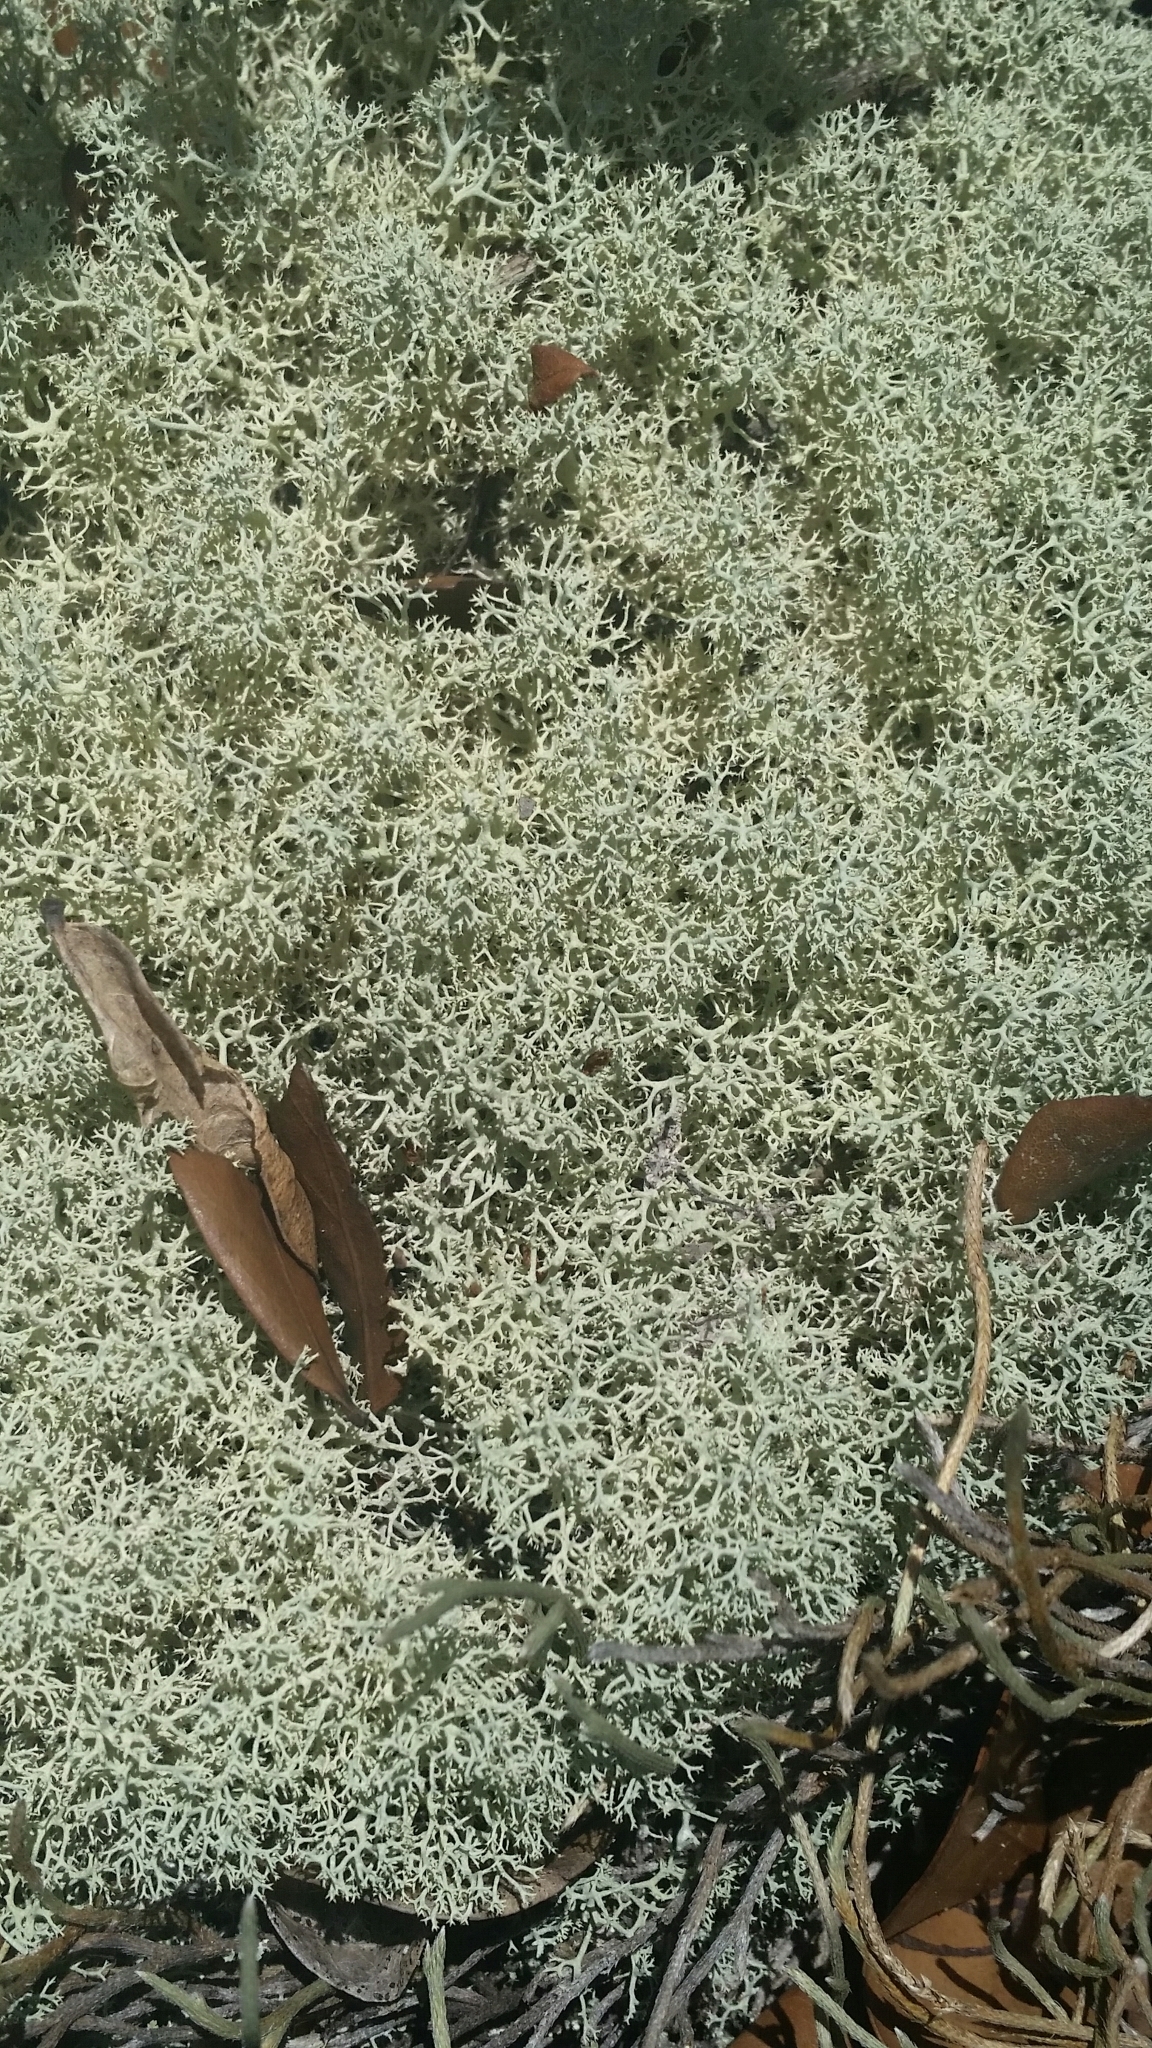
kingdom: Fungi
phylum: Ascomycota
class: Lecanoromycetes
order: Lecanorales
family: Cladoniaceae
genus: Cladonia
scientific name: Cladonia subtenuis
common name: Dixie reindeer lichen
